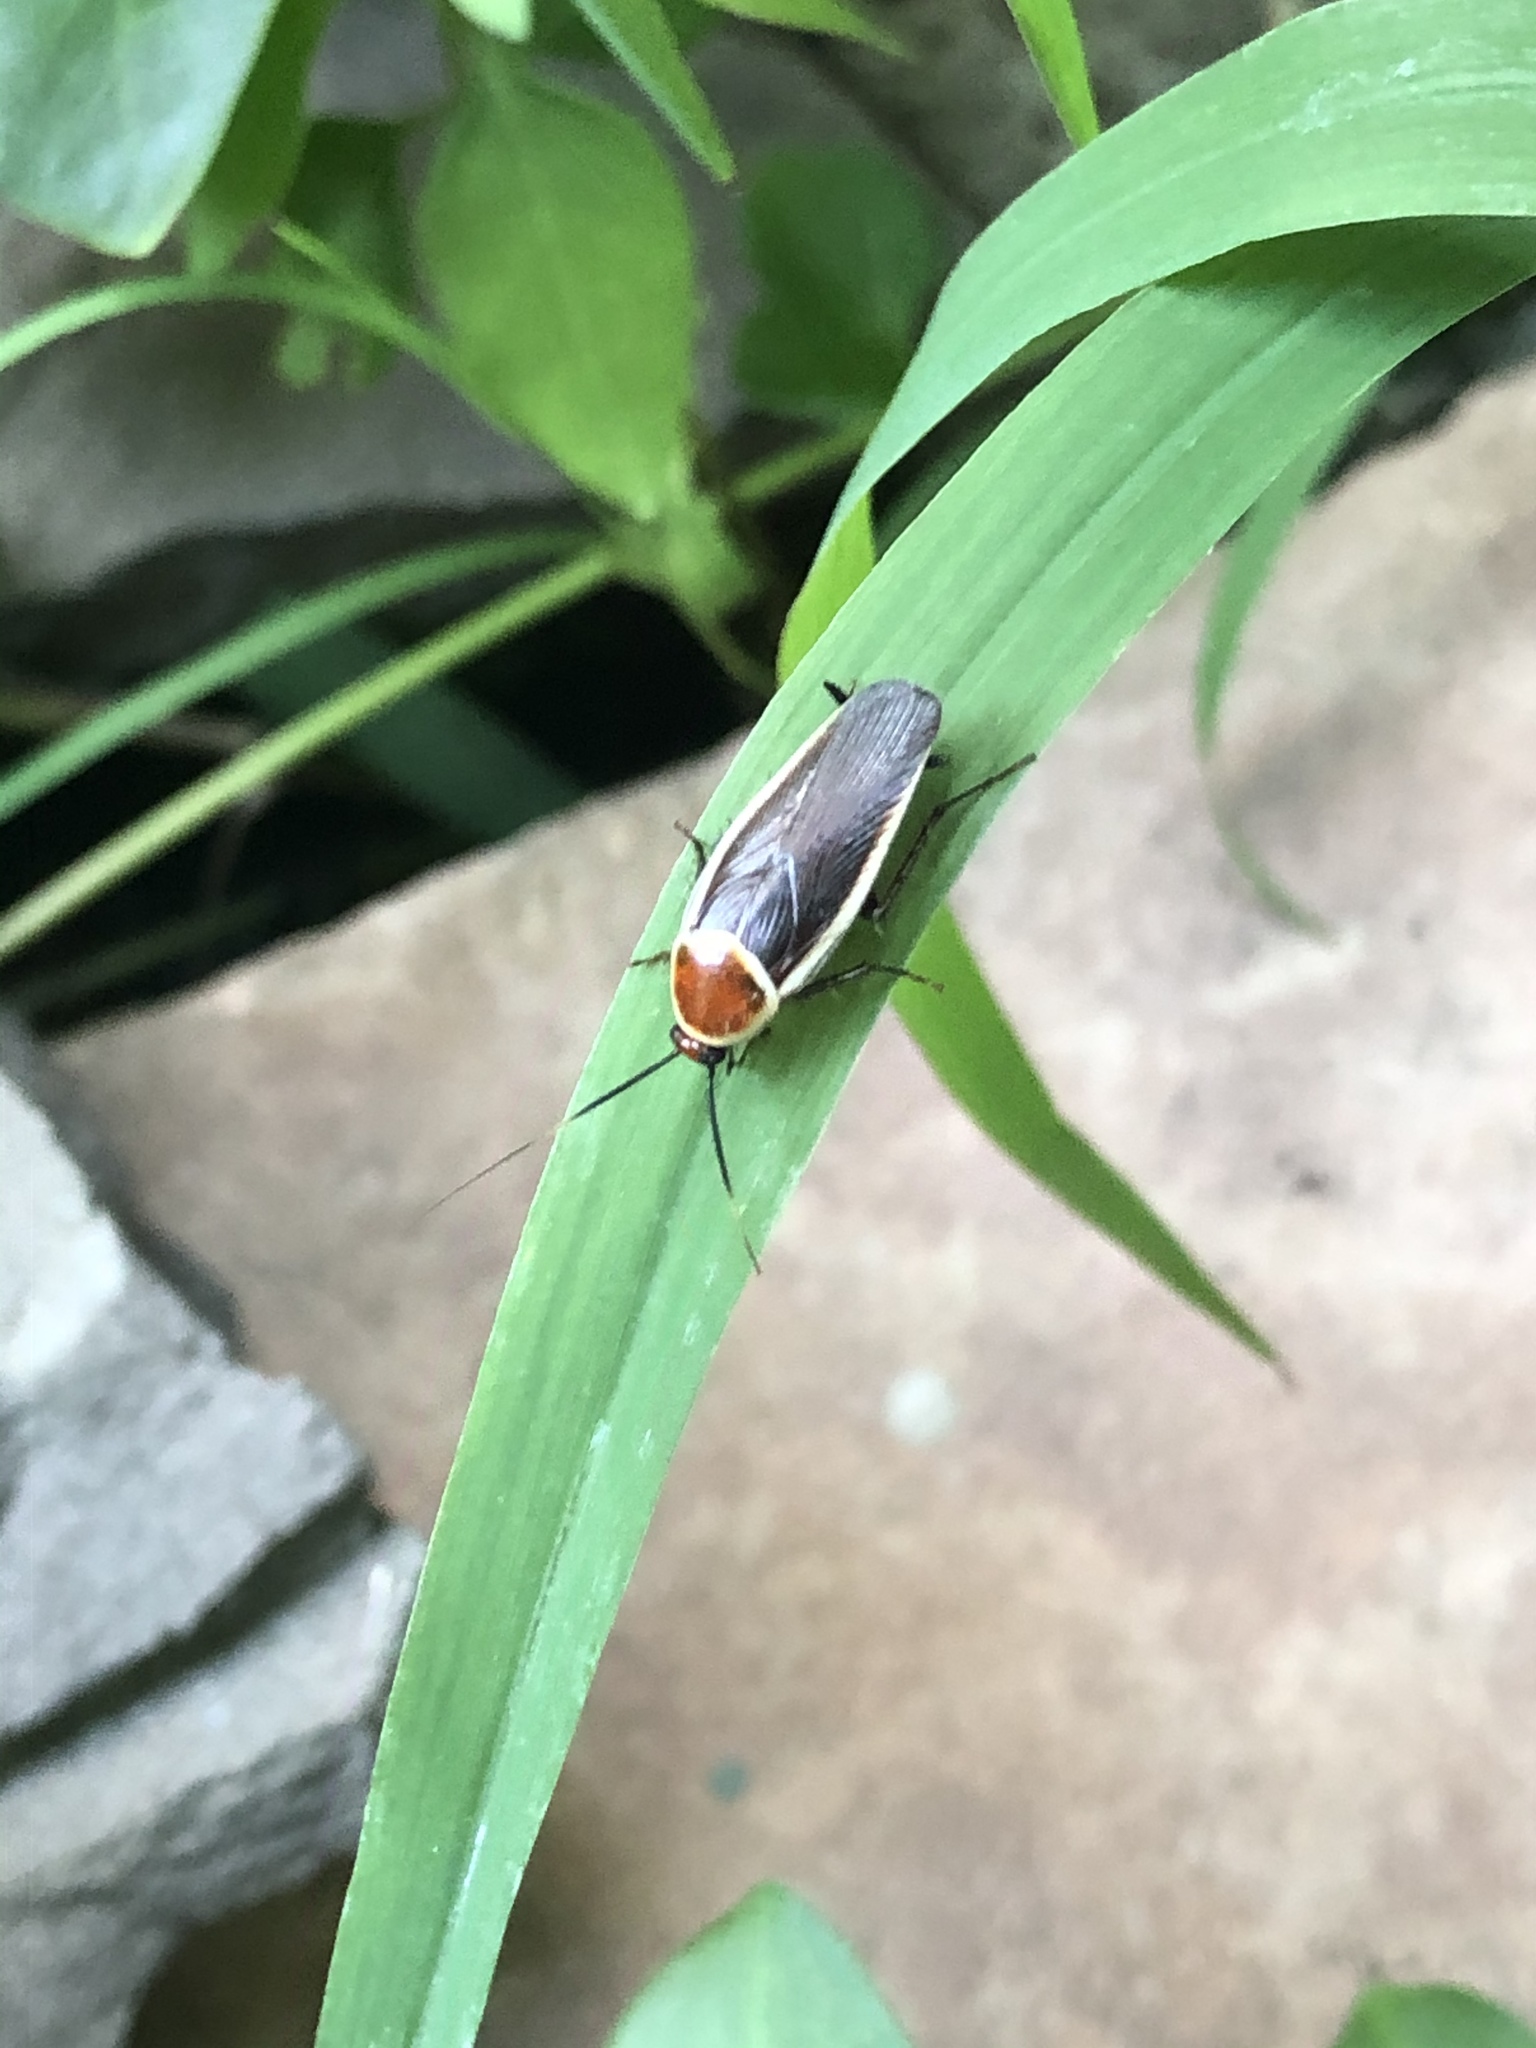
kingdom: Animalia
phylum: Arthropoda
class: Insecta
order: Blattodea
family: Ectobiidae
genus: Pseudomops
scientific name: Pseudomops septentrionalis
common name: Pale-bordered field cockroach
